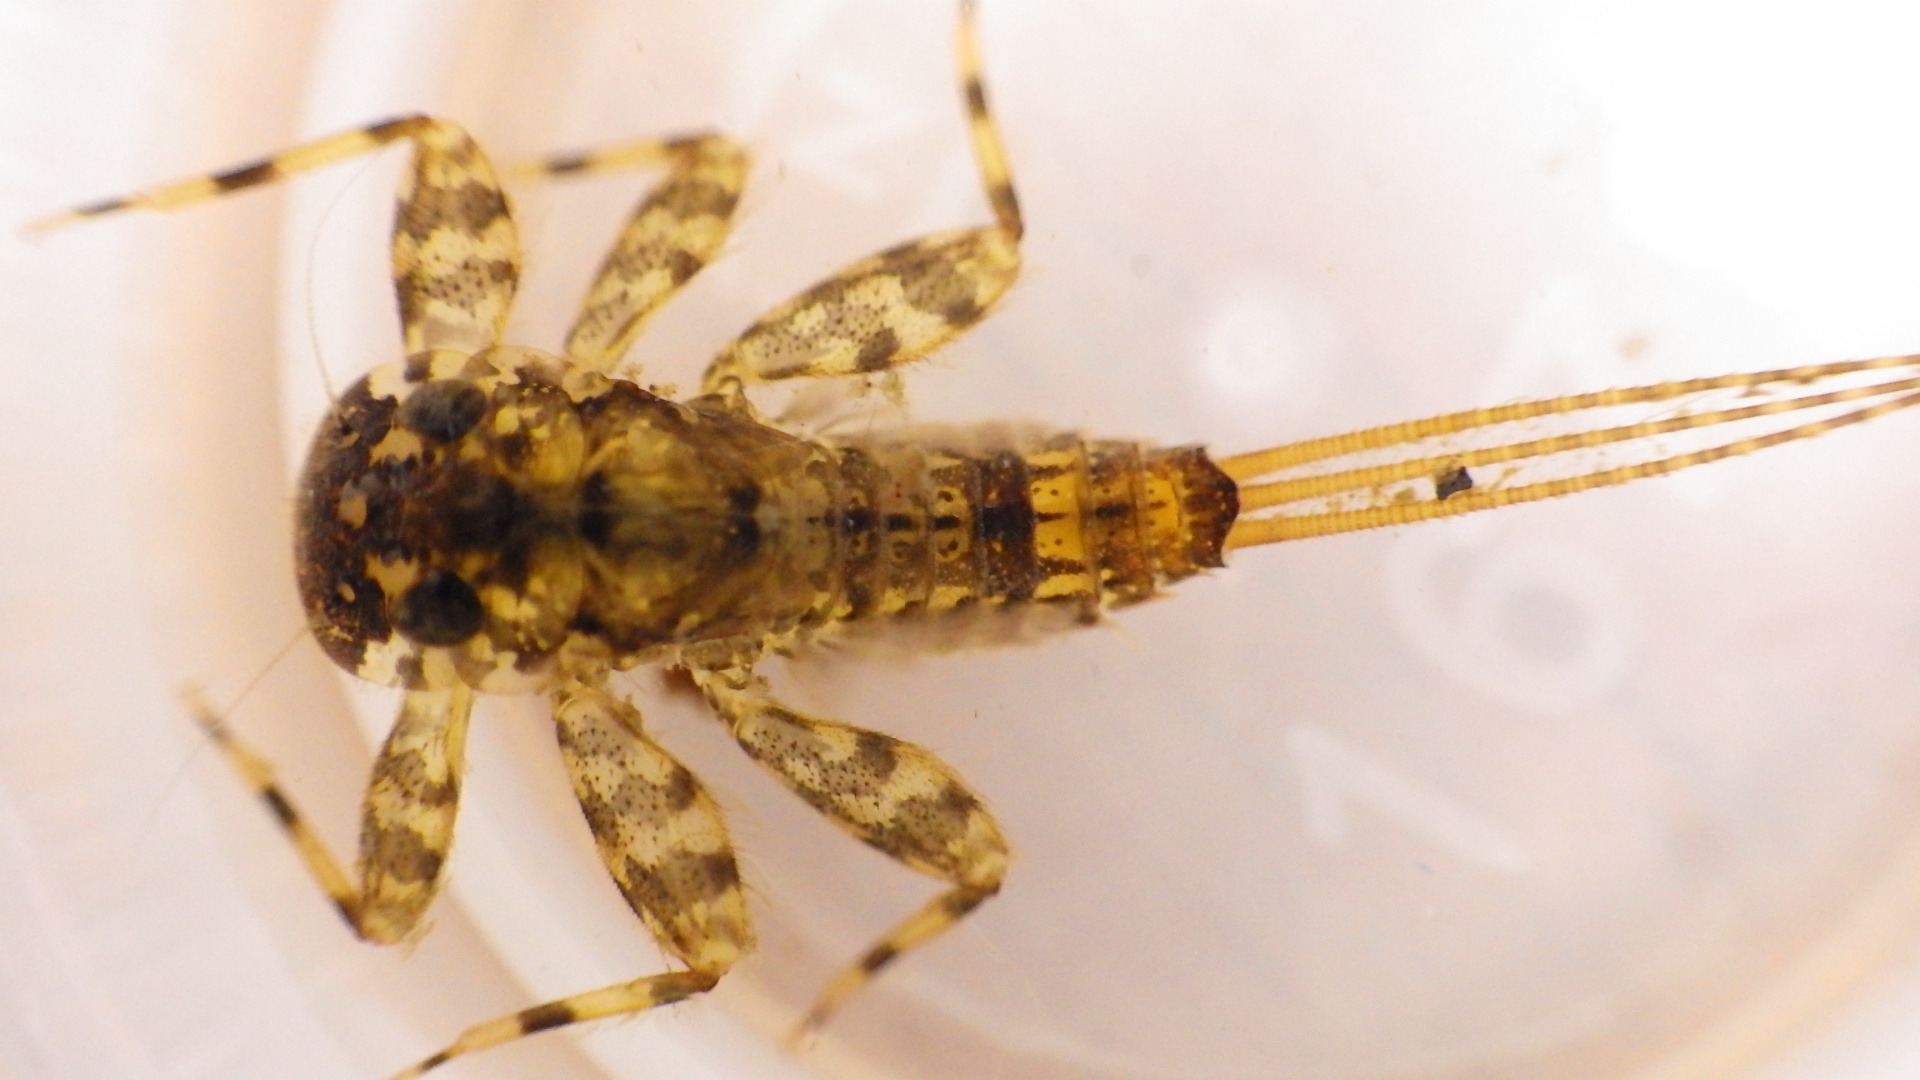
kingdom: Animalia
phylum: Arthropoda
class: Insecta
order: Ephemeroptera
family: Heptageniidae
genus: Maccaffertium
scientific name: Maccaffertium mediopunctatum
